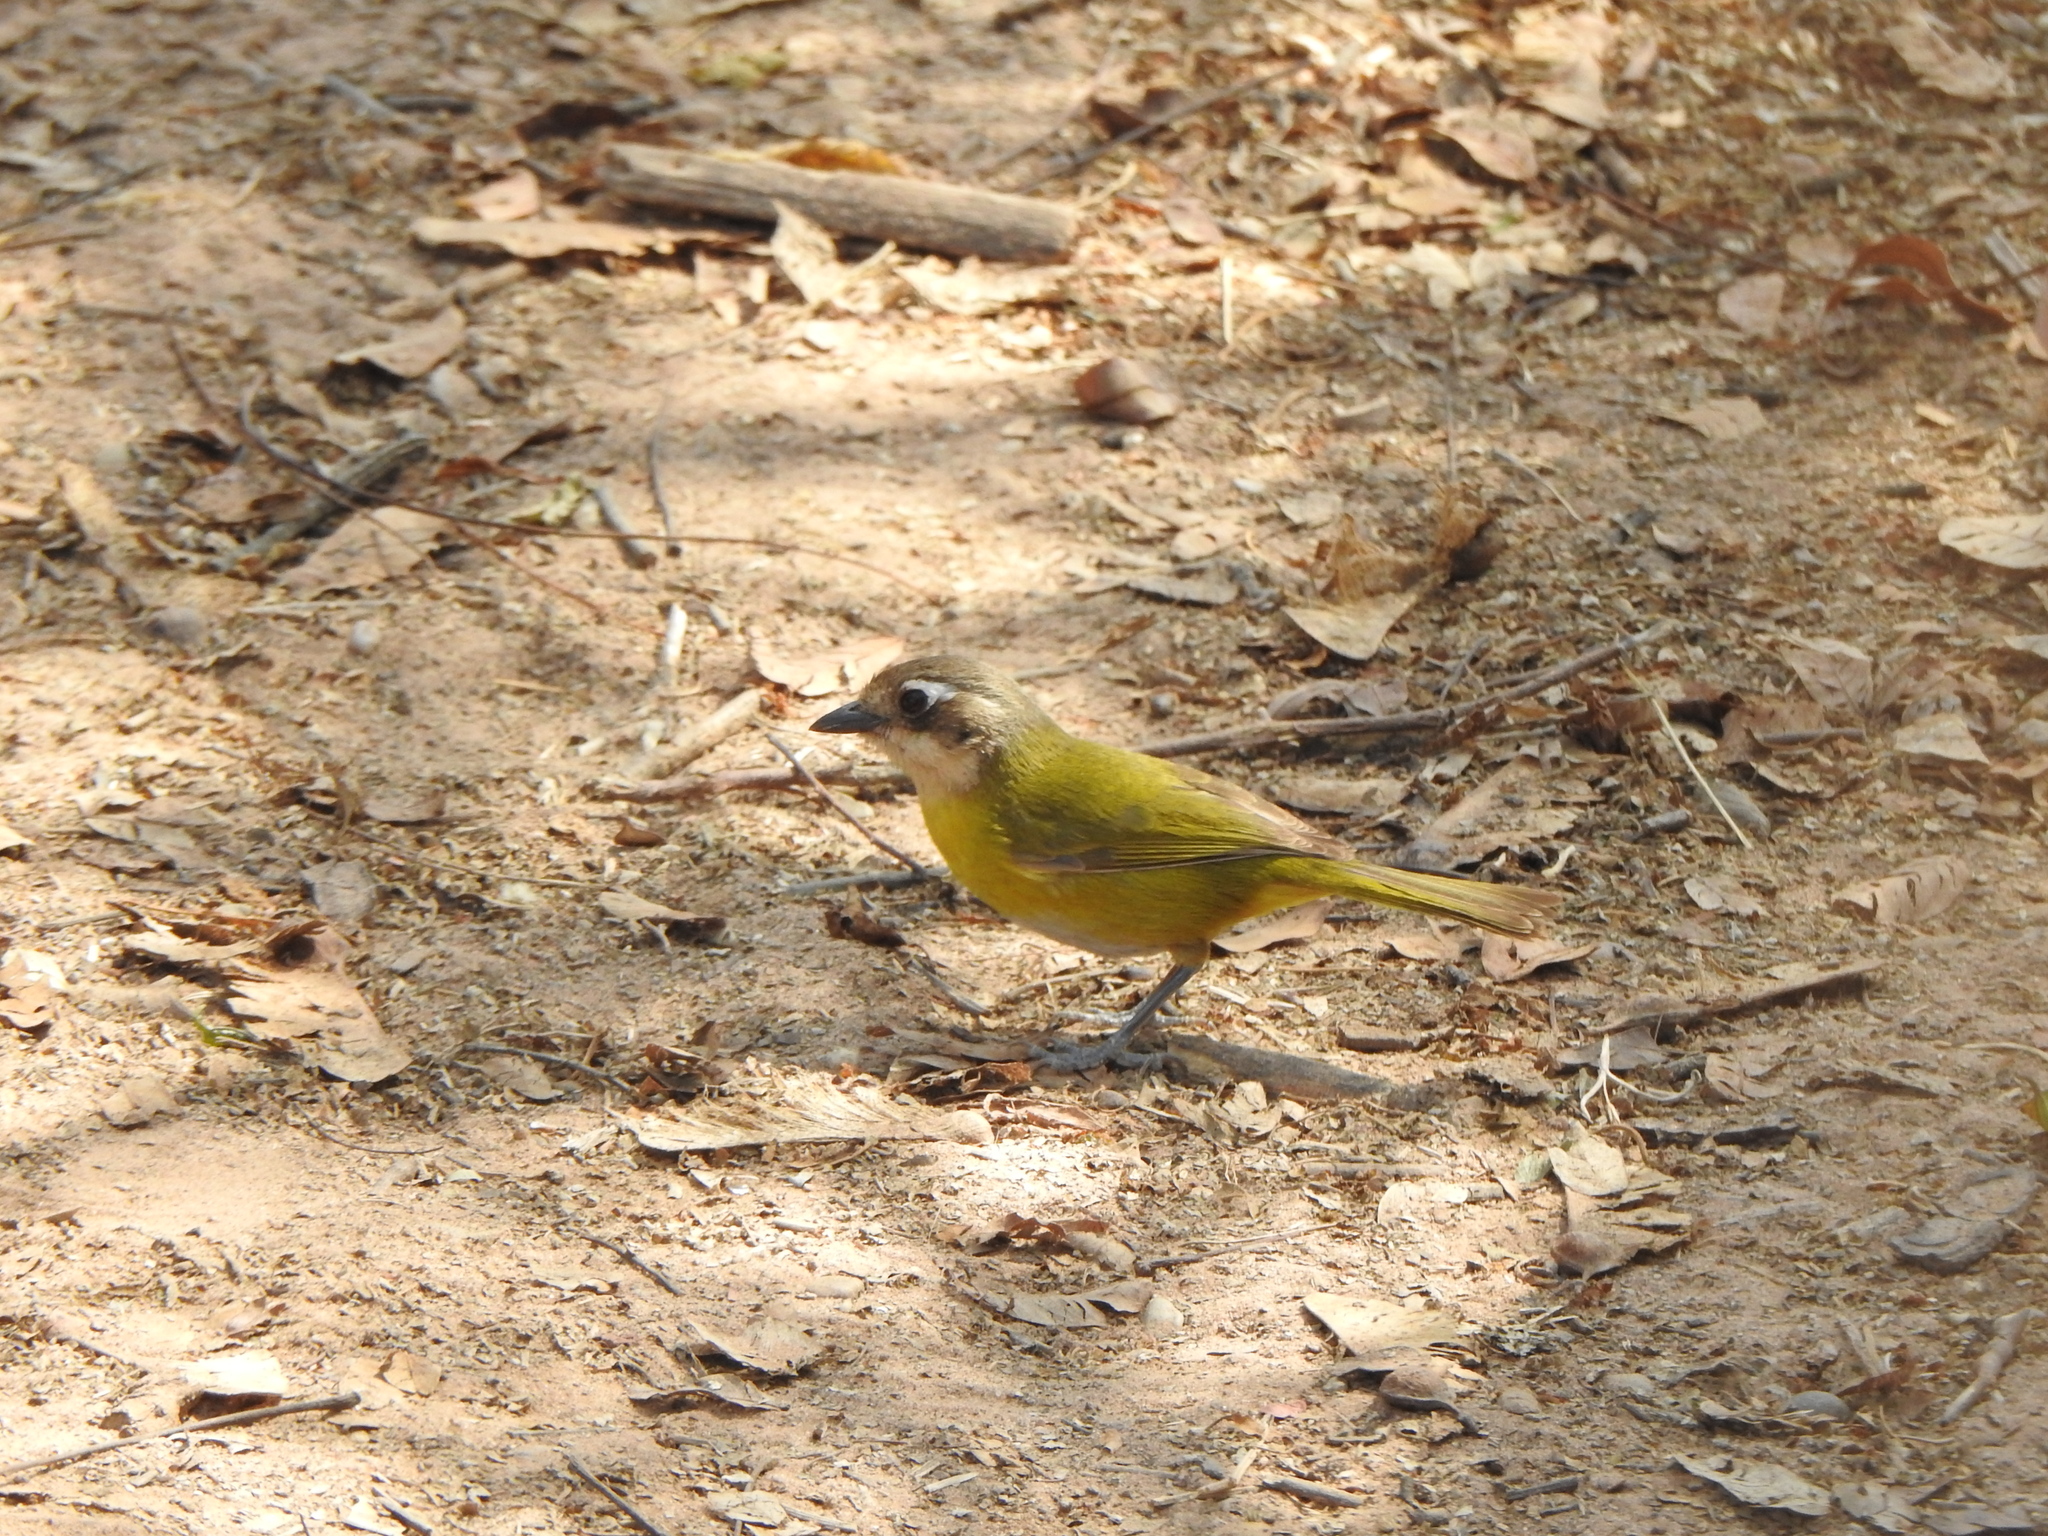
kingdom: Animalia
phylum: Chordata
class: Aves
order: Passeriformes
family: Passerellidae
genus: Chlorospingus
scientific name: Chlorospingus flavopectus
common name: Common chlorospingus
